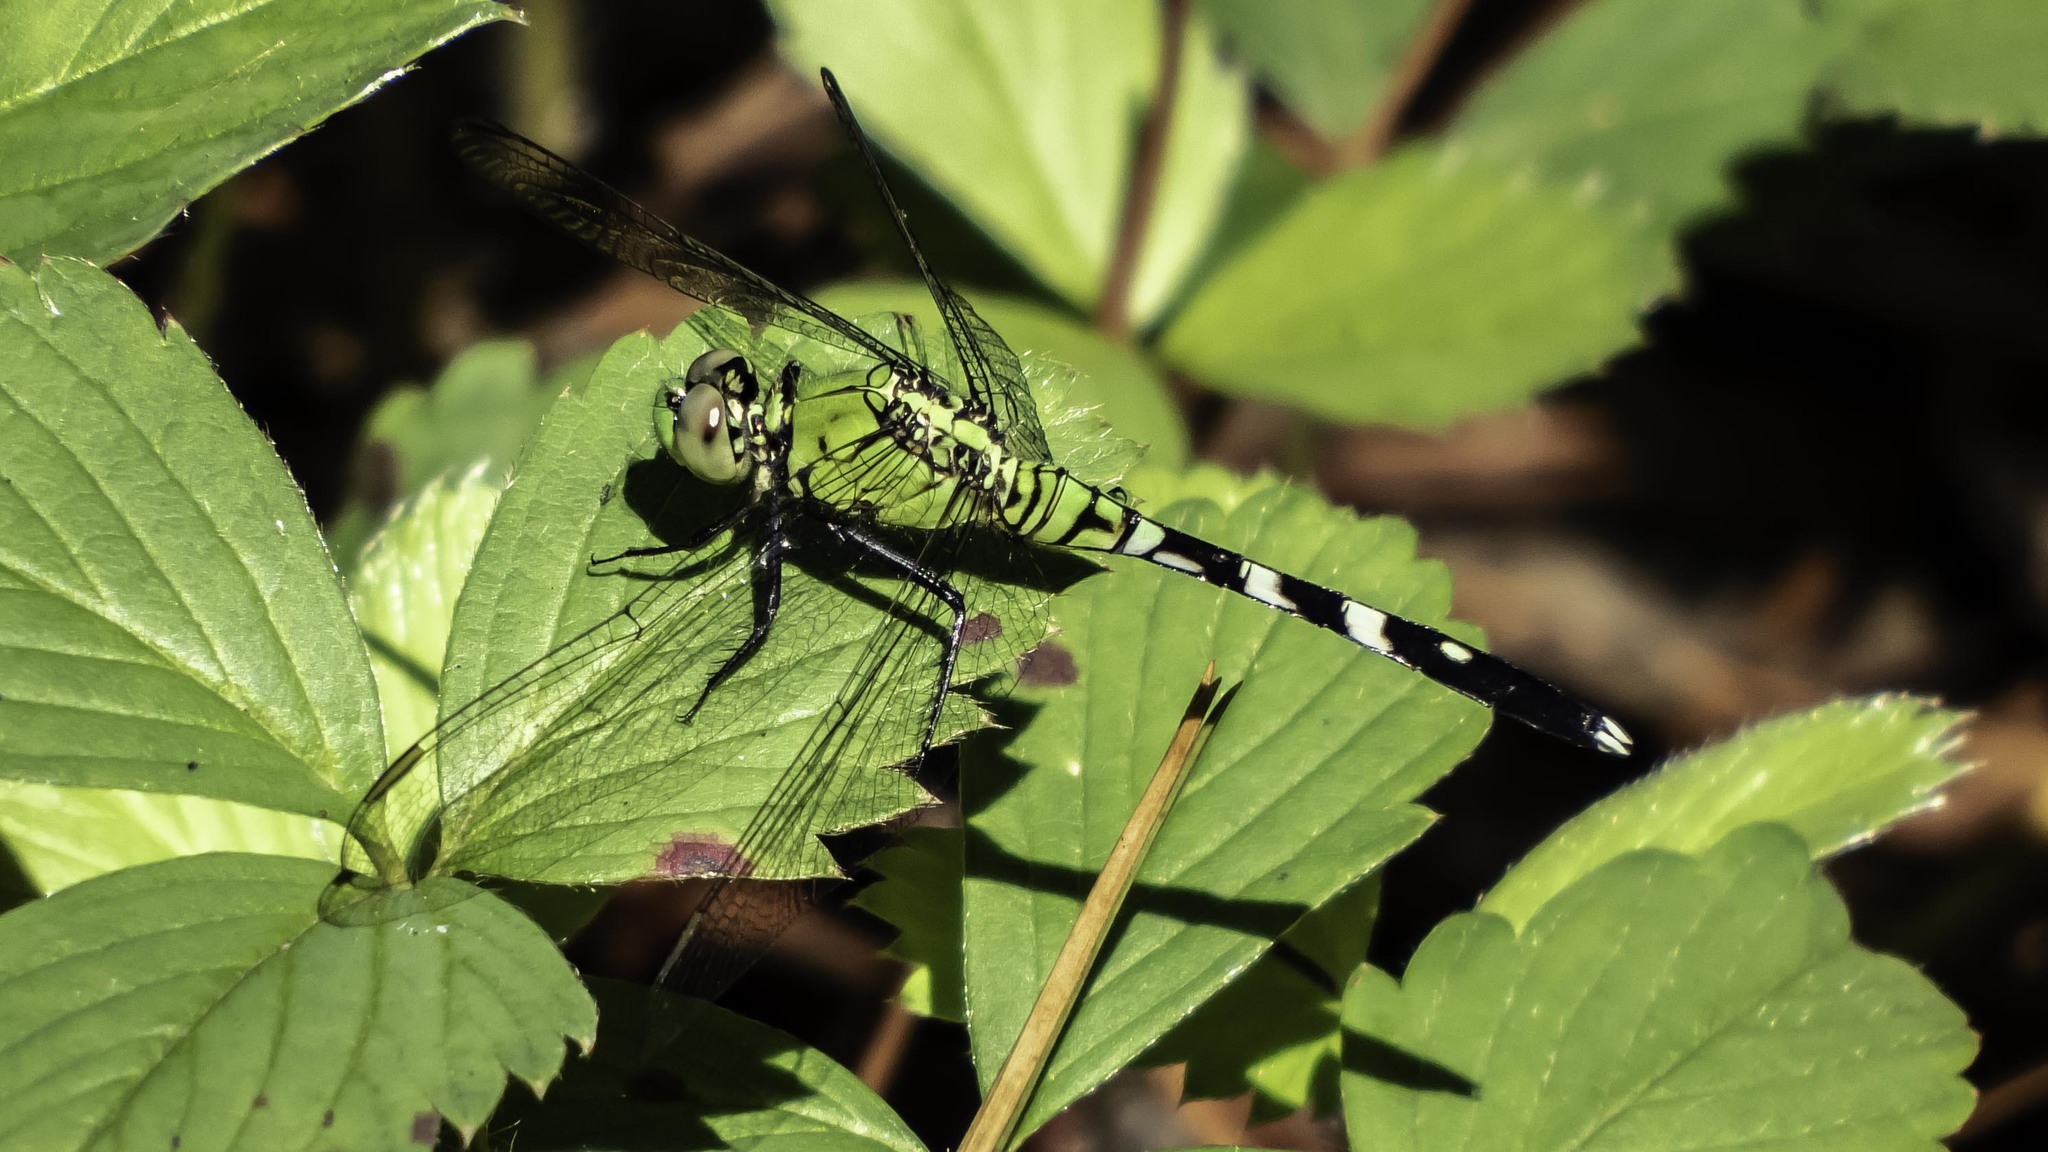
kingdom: Animalia
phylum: Arthropoda
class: Insecta
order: Odonata
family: Libellulidae
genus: Erythemis
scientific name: Erythemis simplicicollis
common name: Eastern pondhawk
